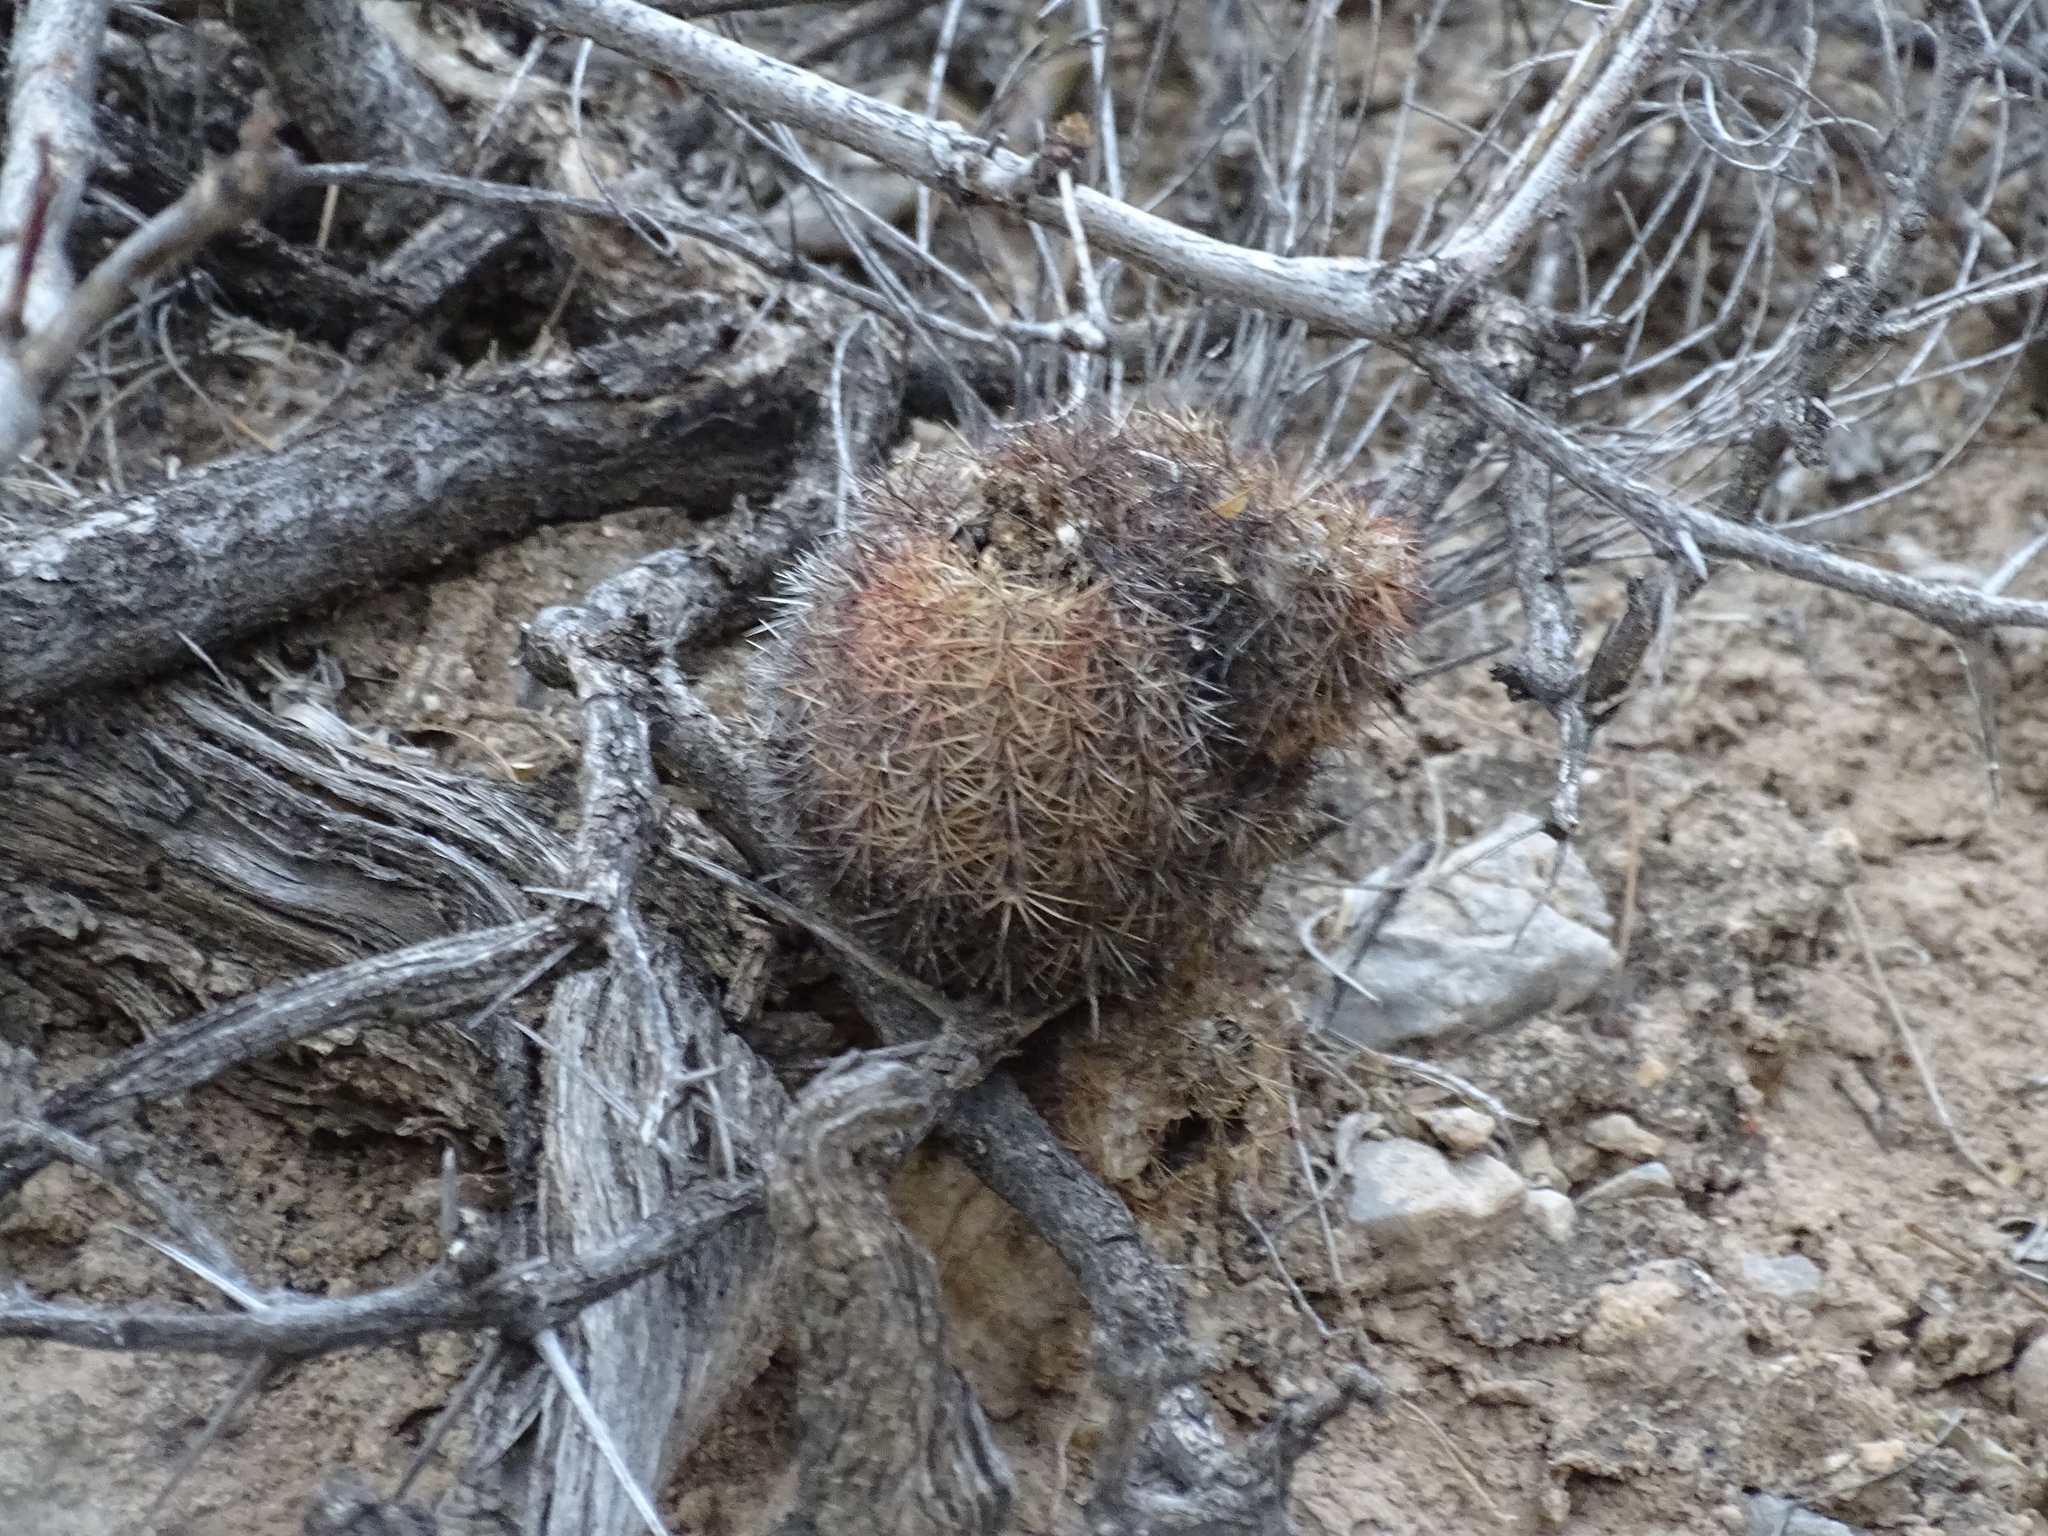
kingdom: Plantae
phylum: Tracheophyta
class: Magnoliopsida
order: Caryophyllales
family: Cactaceae
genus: Echinocereus
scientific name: Echinocereus dasyacanthus
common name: Spiny hedgehog cactus
